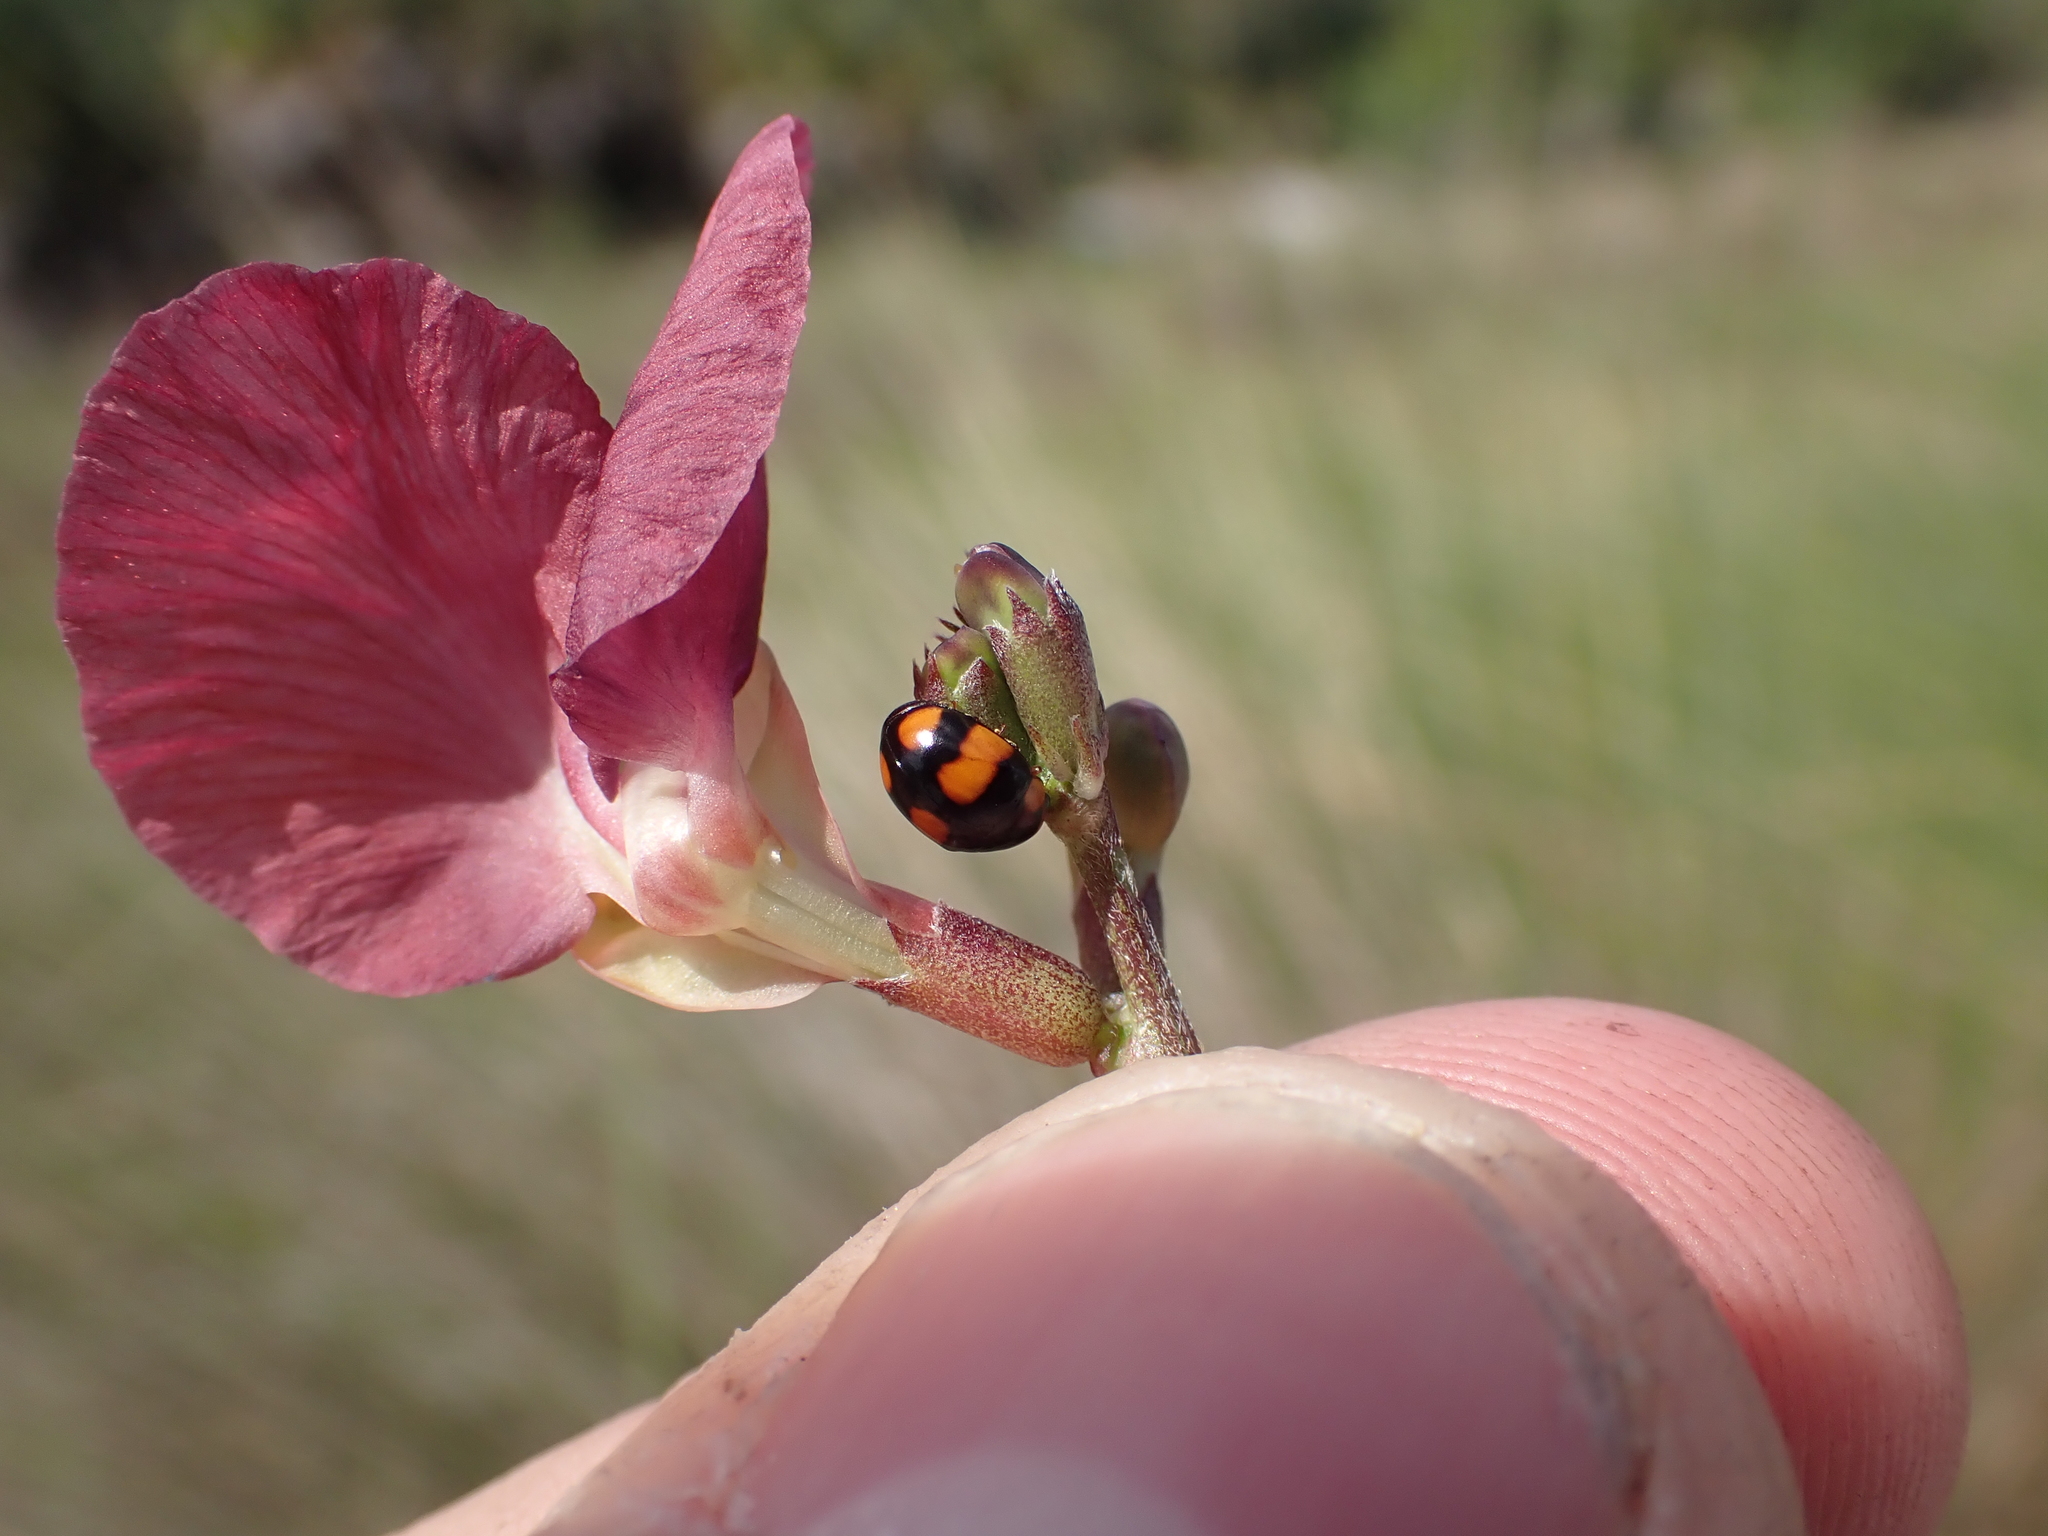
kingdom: Animalia
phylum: Arthropoda
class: Insecta
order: Coleoptera
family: Coccinellidae
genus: Brachiacantha
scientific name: Brachiacantha dentipes
